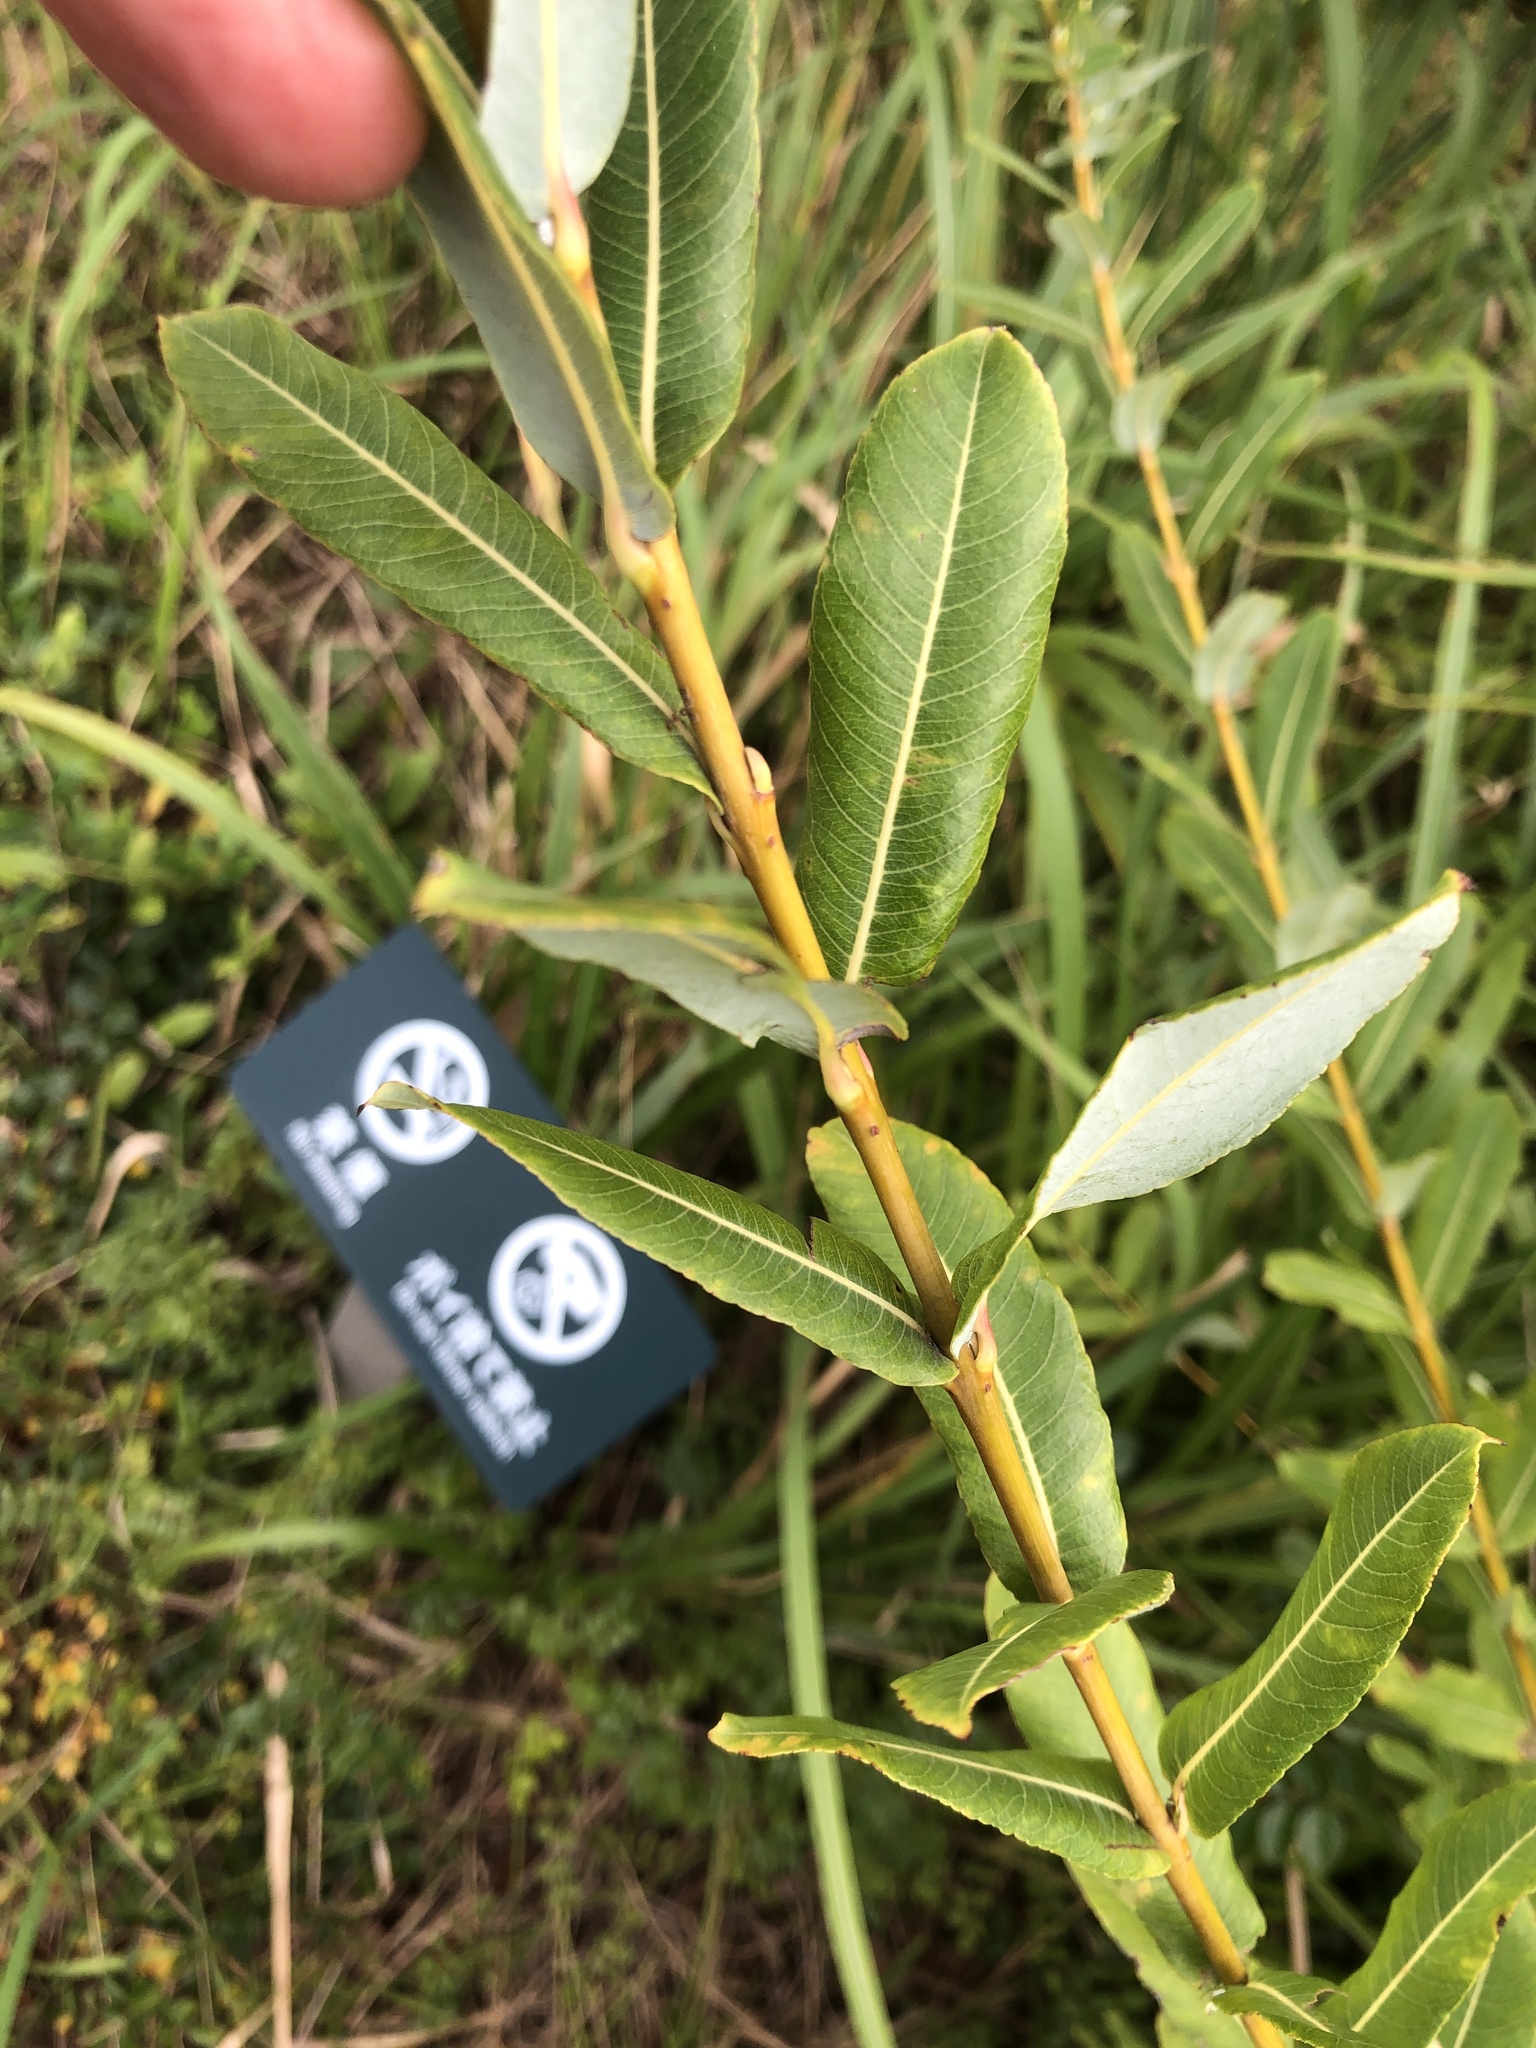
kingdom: Plantae
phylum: Tracheophyta
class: Magnoliopsida
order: Malpighiales
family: Salicaceae
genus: Salix
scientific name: Salix integra
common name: Dappled willow
